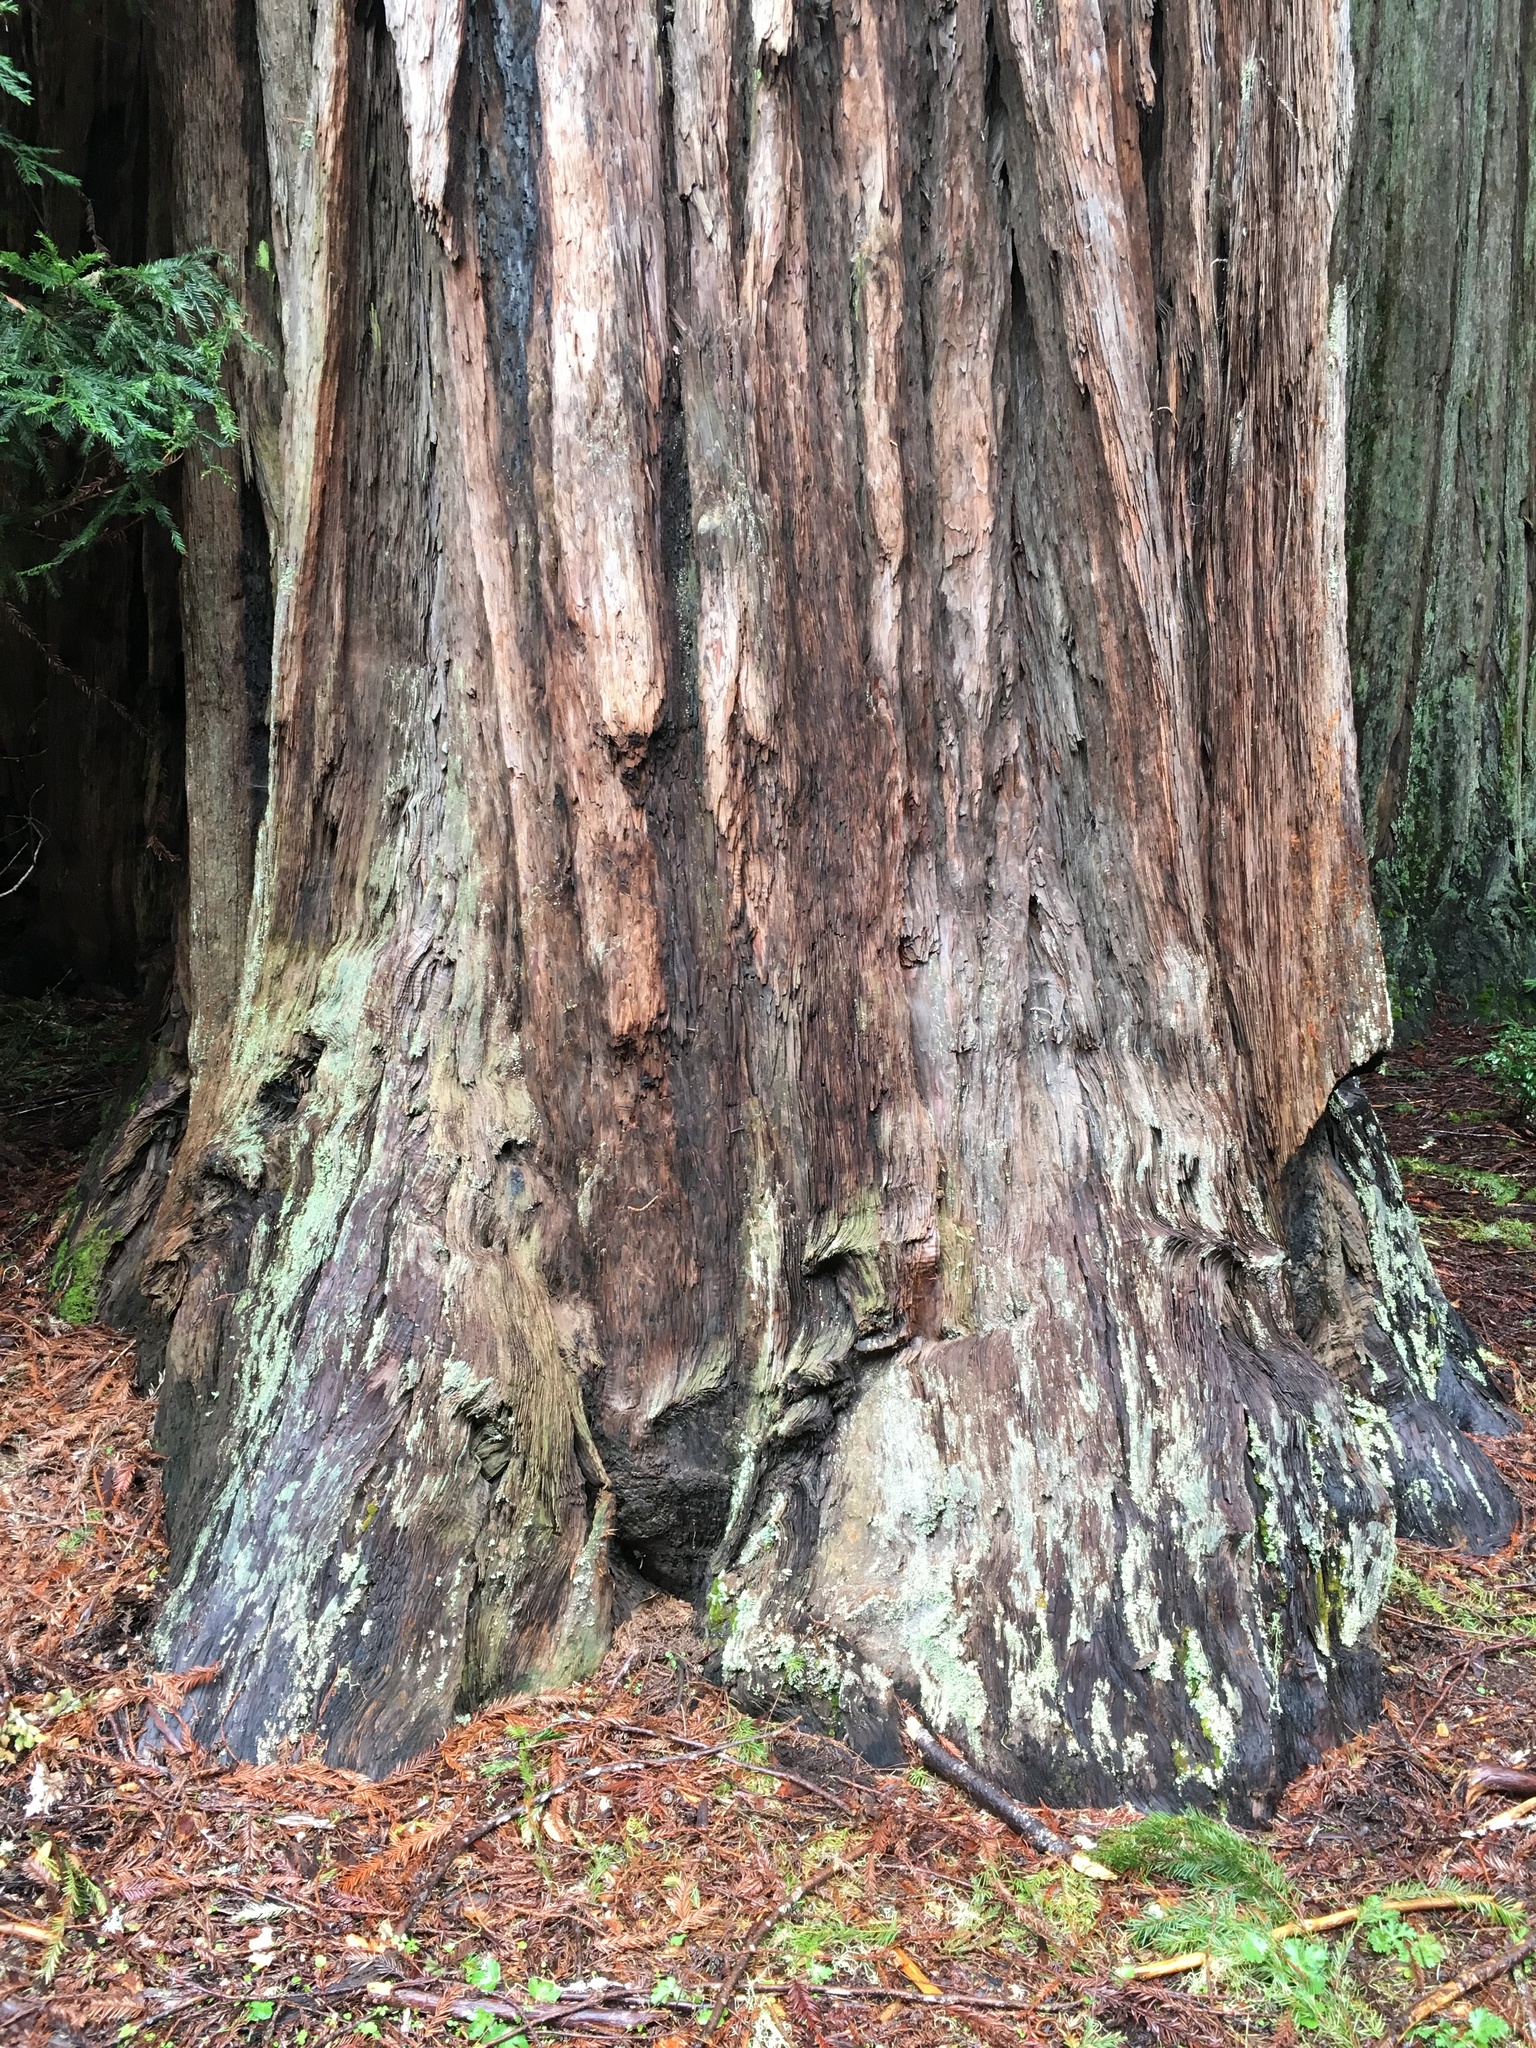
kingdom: Plantae
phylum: Tracheophyta
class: Pinopsida
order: Pinales
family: Cupressaceae
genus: Sequoia
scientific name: Sequoia sempervirens
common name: Coast redwood
